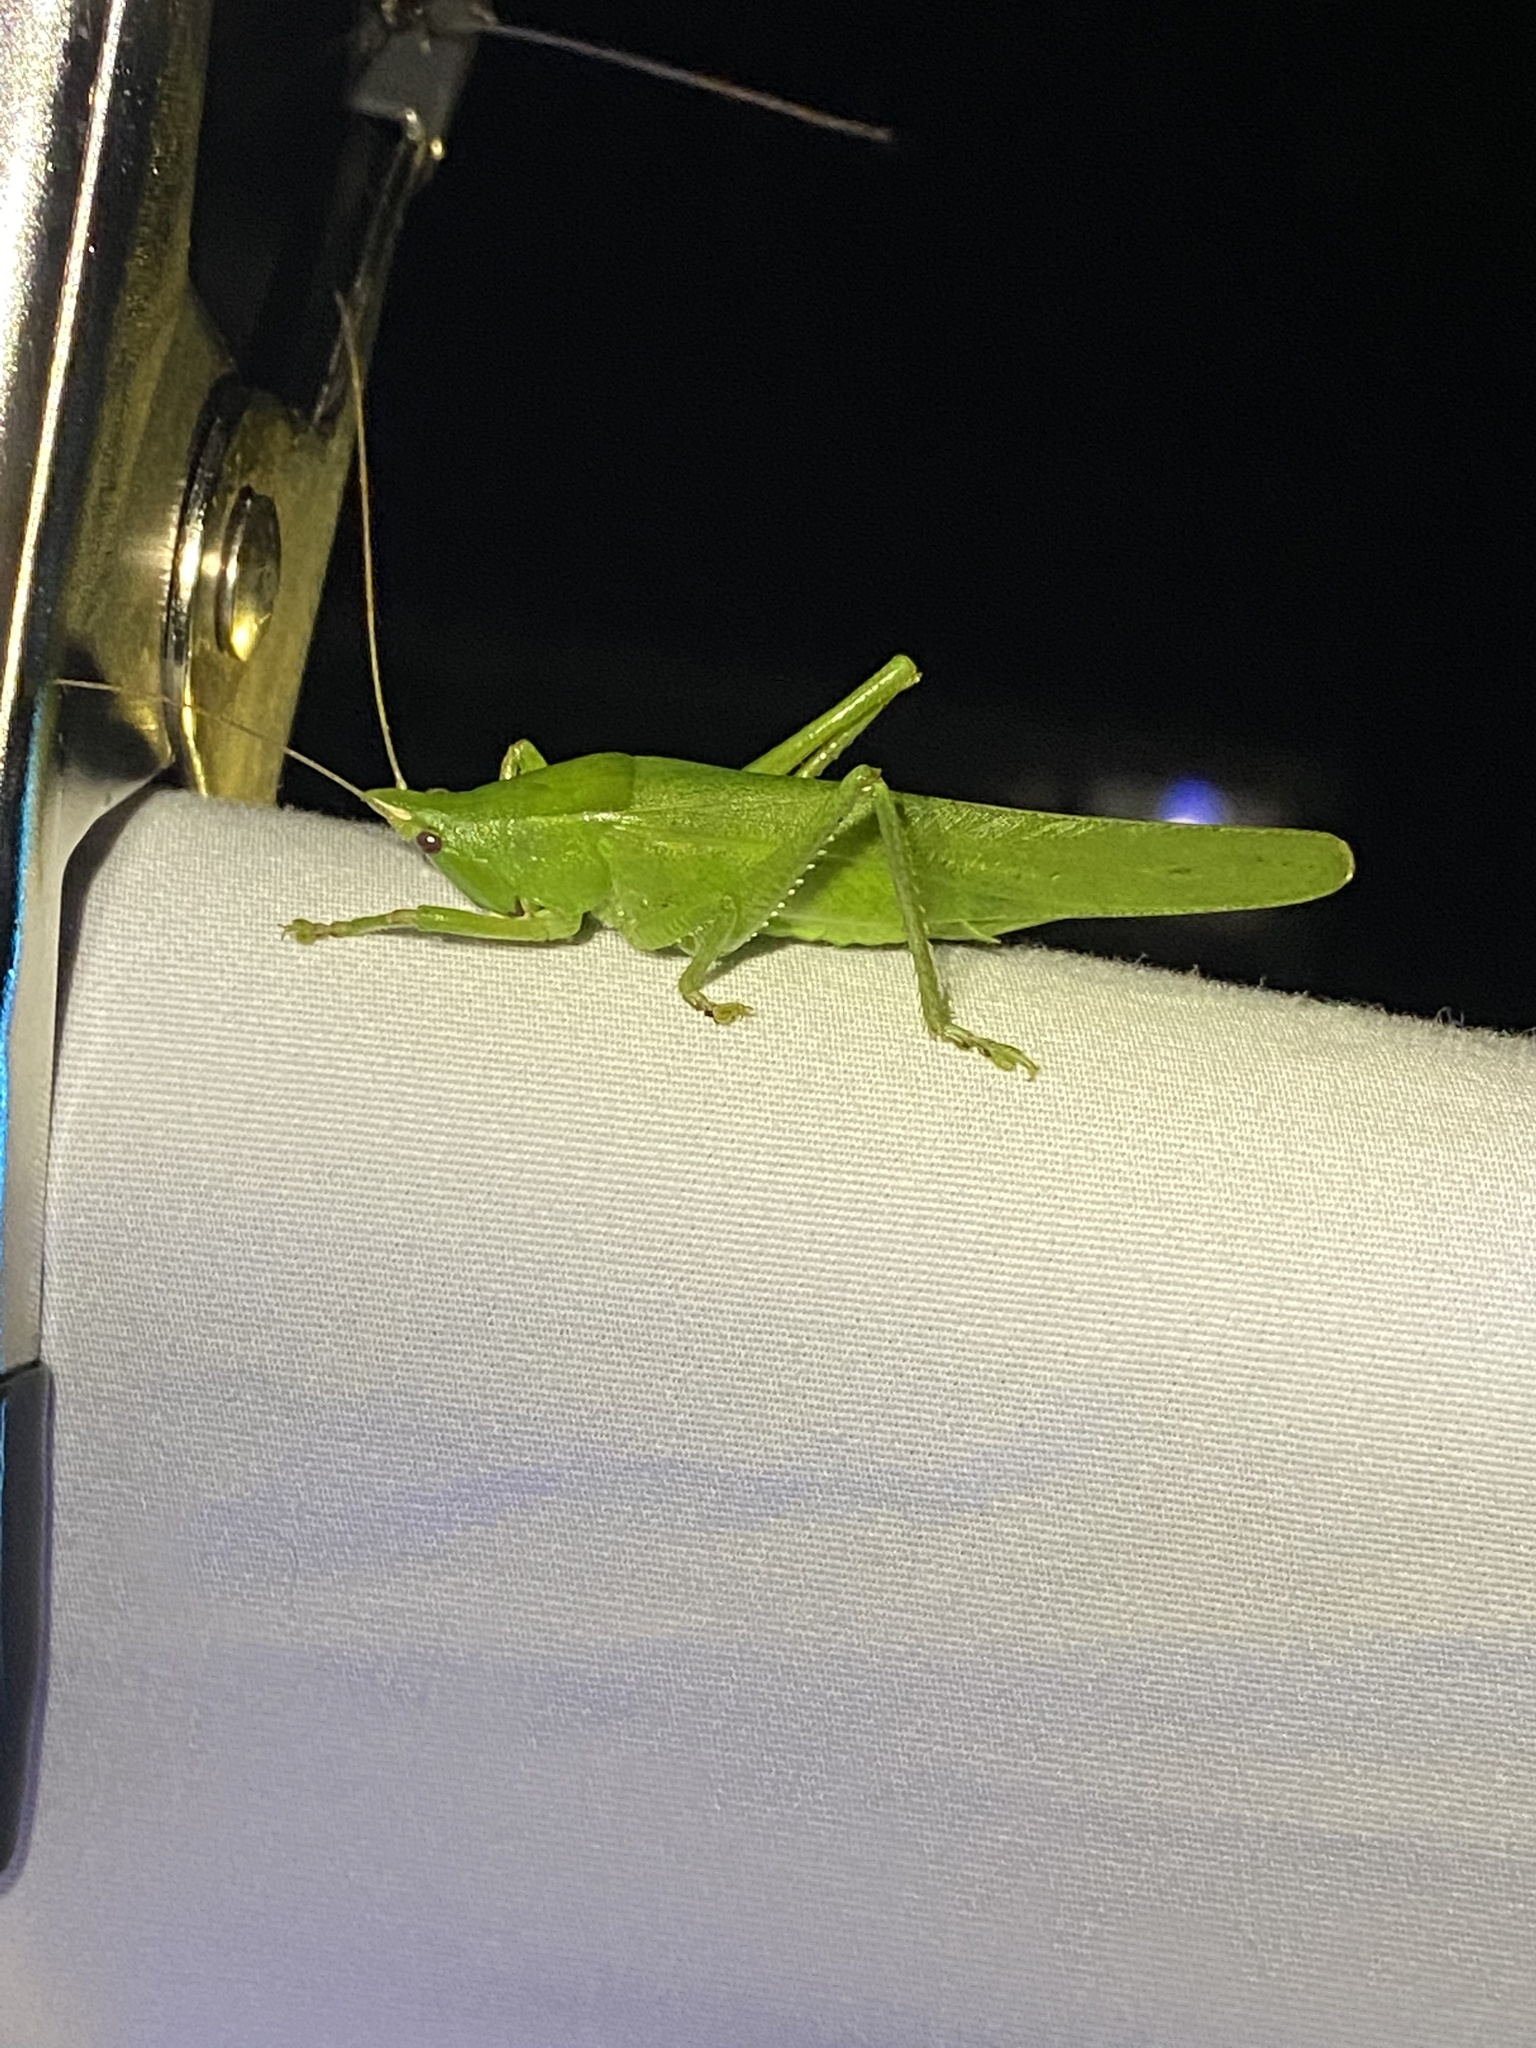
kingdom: Animalia
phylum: Arthropoda
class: Insecta
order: Orthoptera
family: Tettigoniidae
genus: Pyrgocorypha
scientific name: Pyrgocorypha uncinata
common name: Hook-faced conehead
